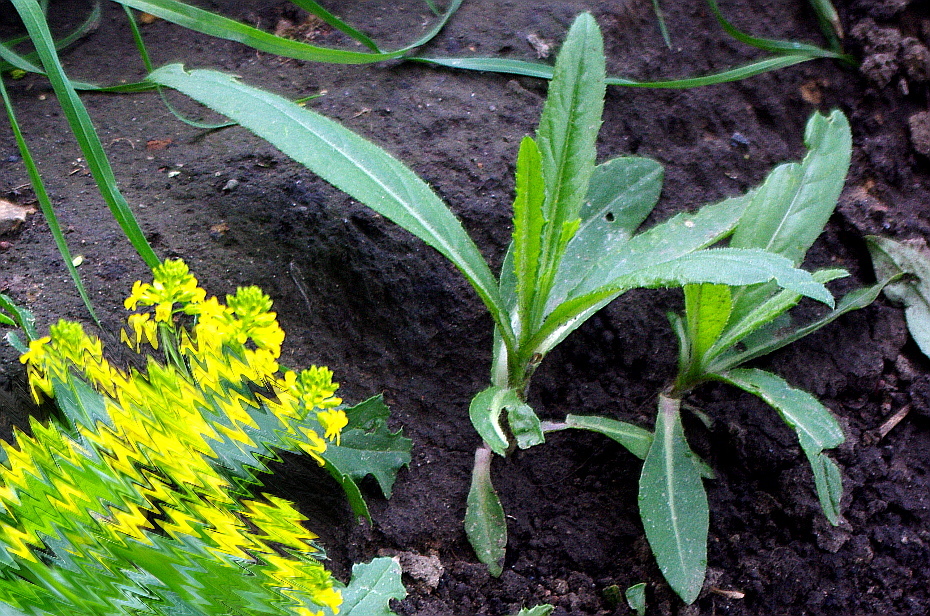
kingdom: Plantae
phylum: Tracheophyta
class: Magnoliopsida
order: Asterales
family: Asteraceae
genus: Cirsium
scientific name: Cirsium arvense
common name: Creeping thistle
